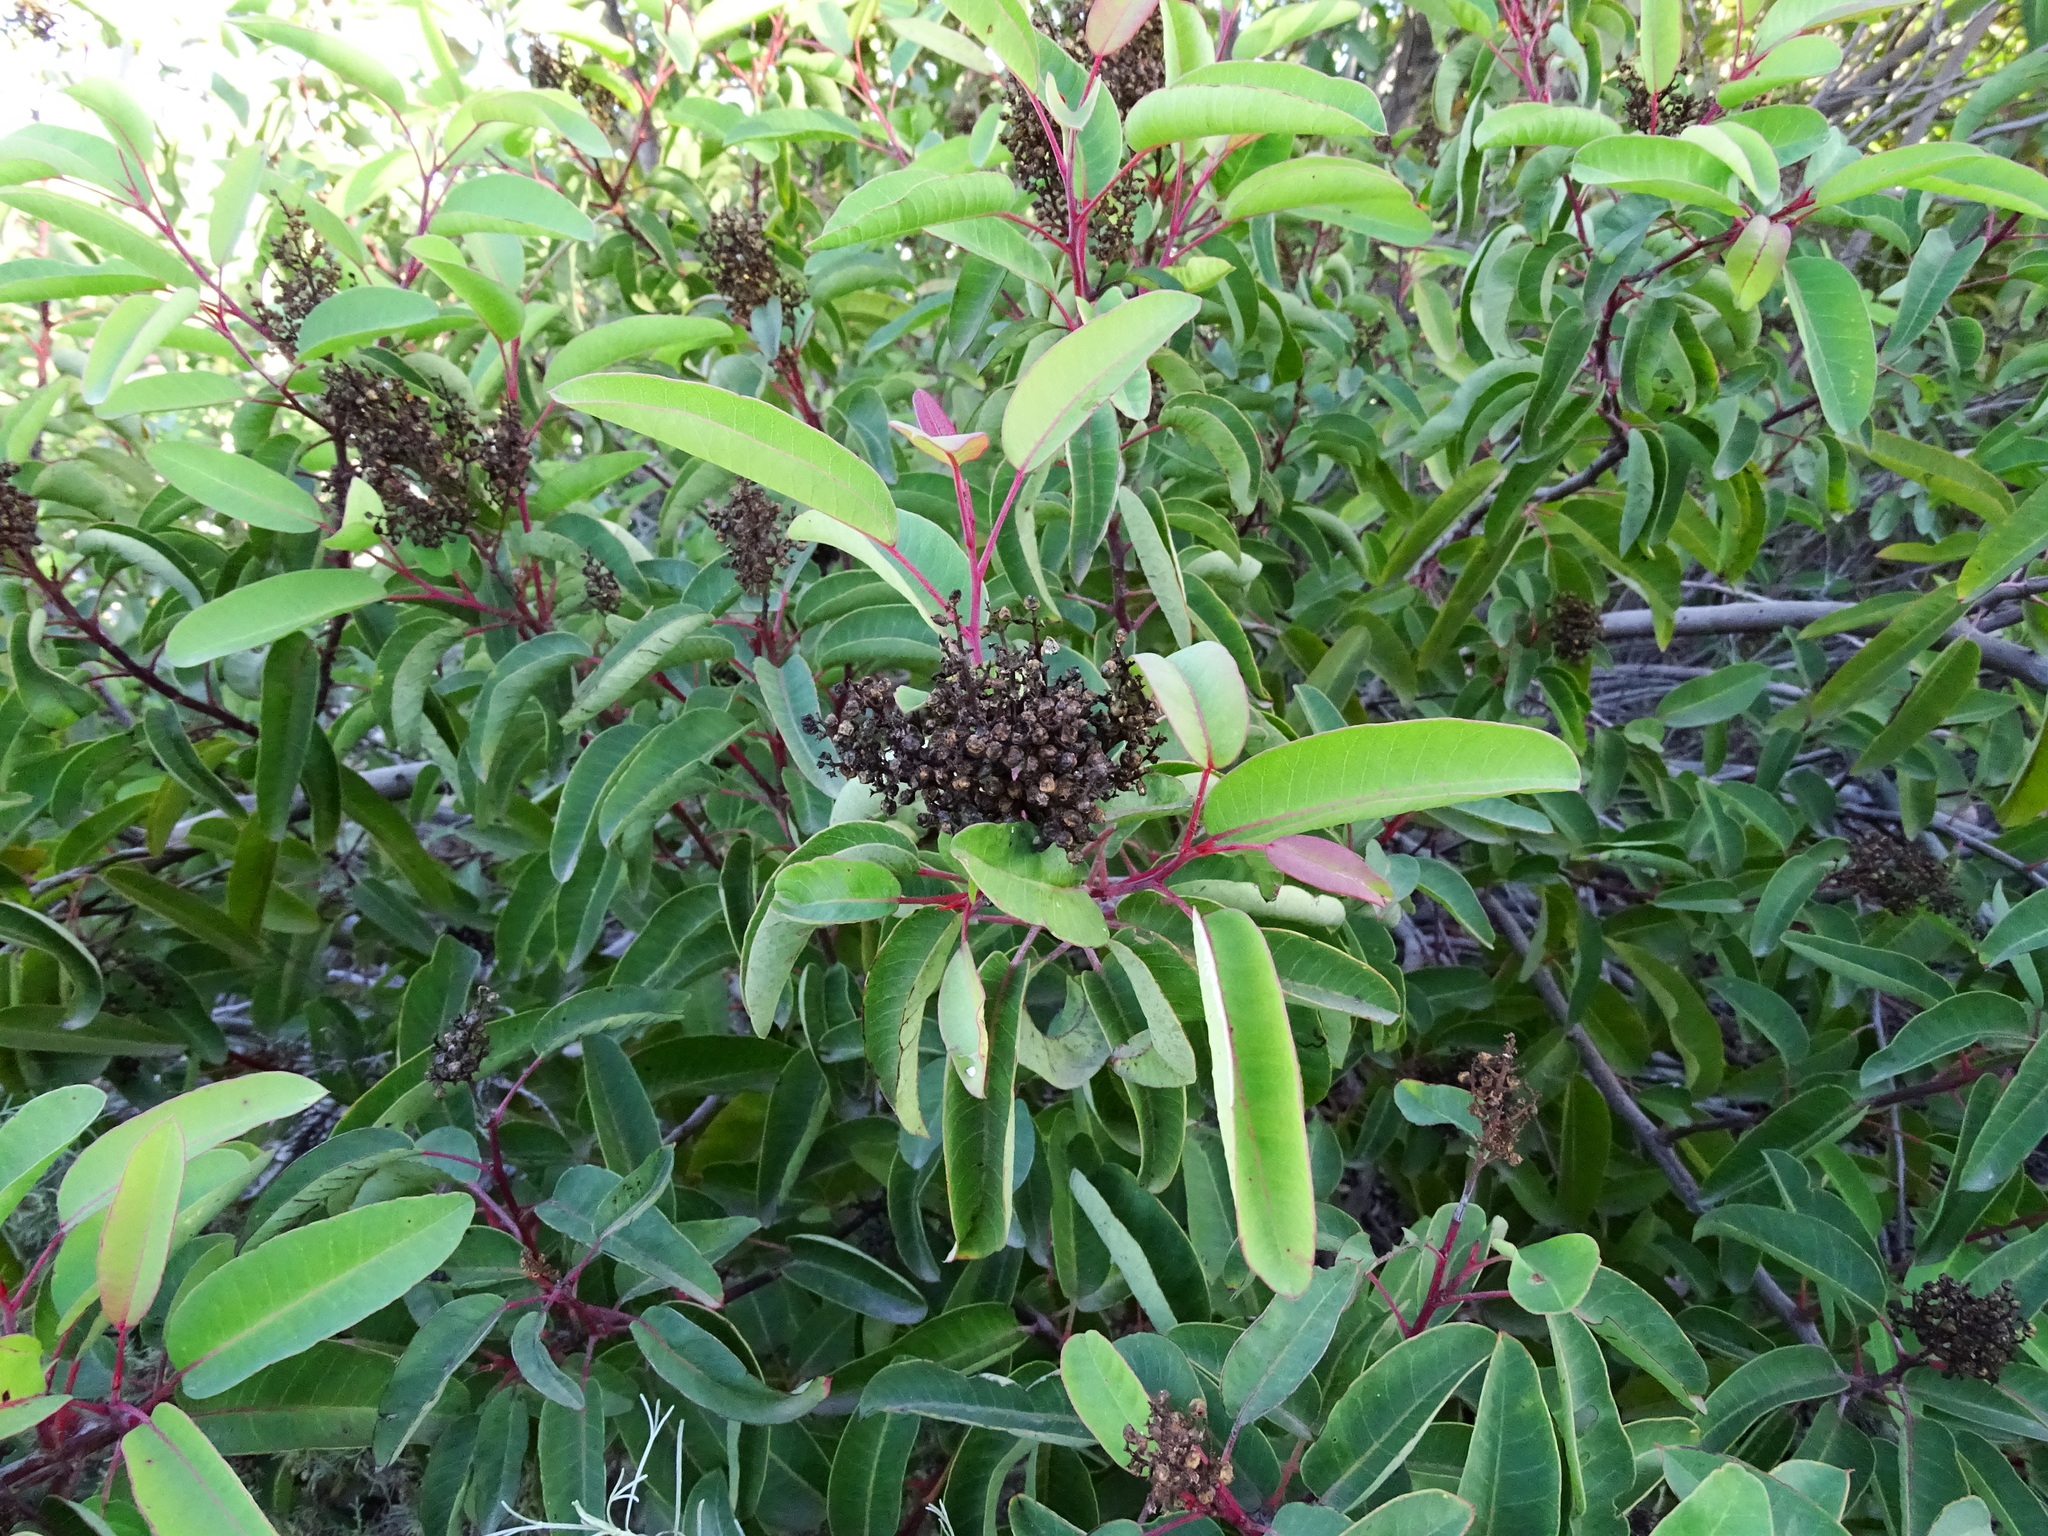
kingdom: Plantae
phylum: Tracheophyta
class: Magnoliopsida
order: Sapindales
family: Anacardiaceae
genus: Malosma
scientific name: Malosma laurina
